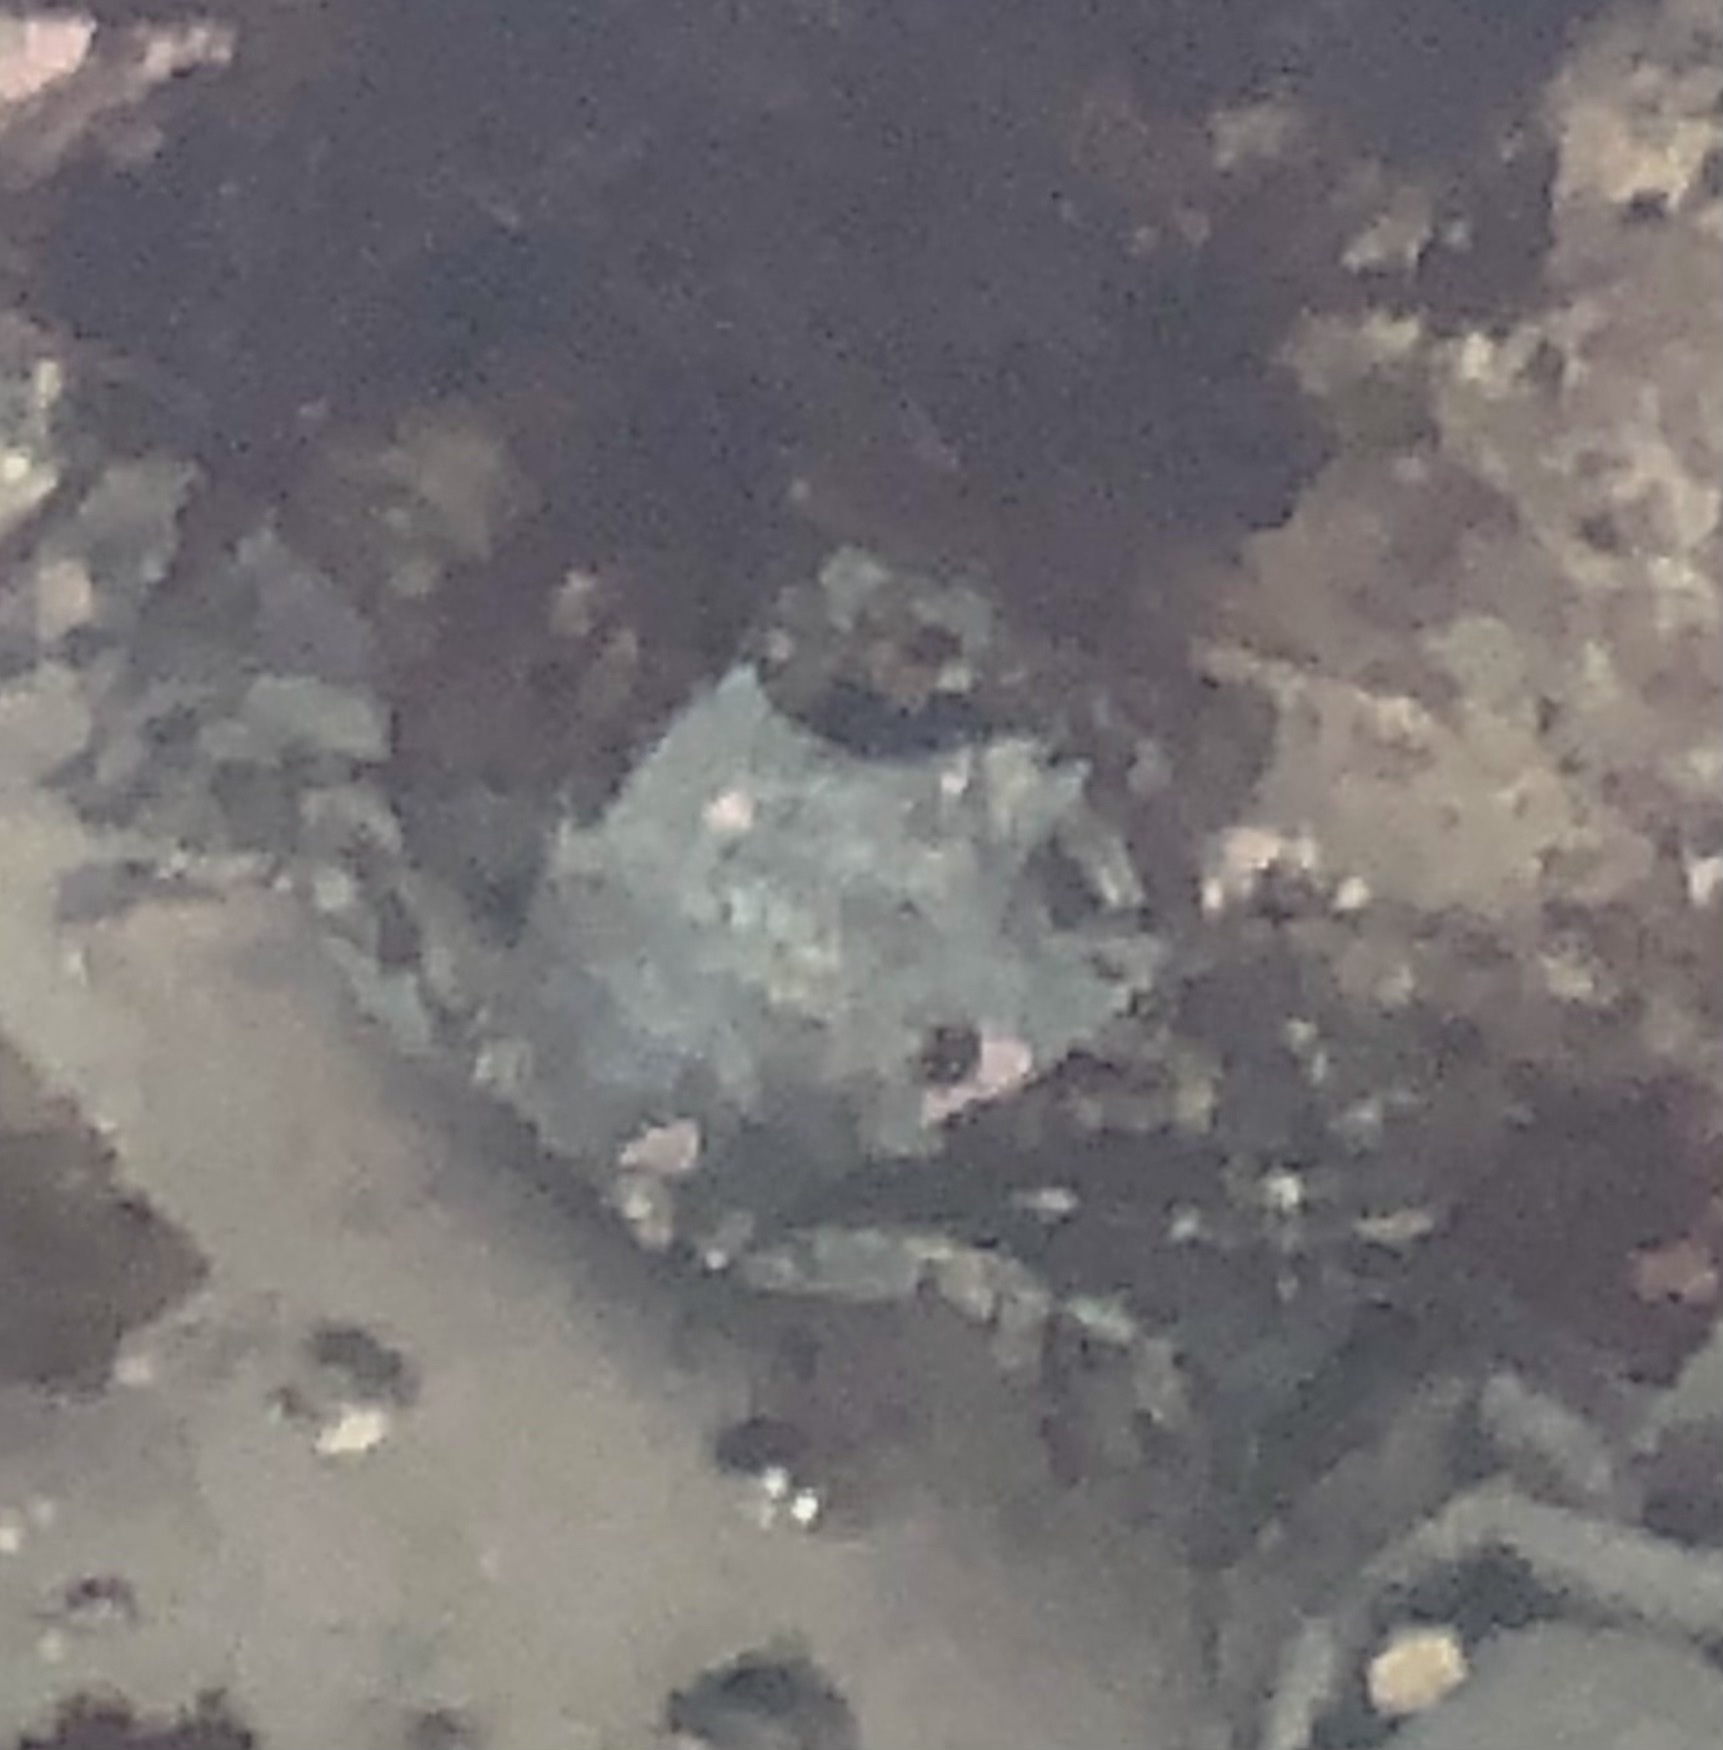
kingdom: Animalia
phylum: Arthropoda
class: Malacostraca
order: Decapoda
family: Epialtidae
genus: Pugettia
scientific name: Pugettia producta
